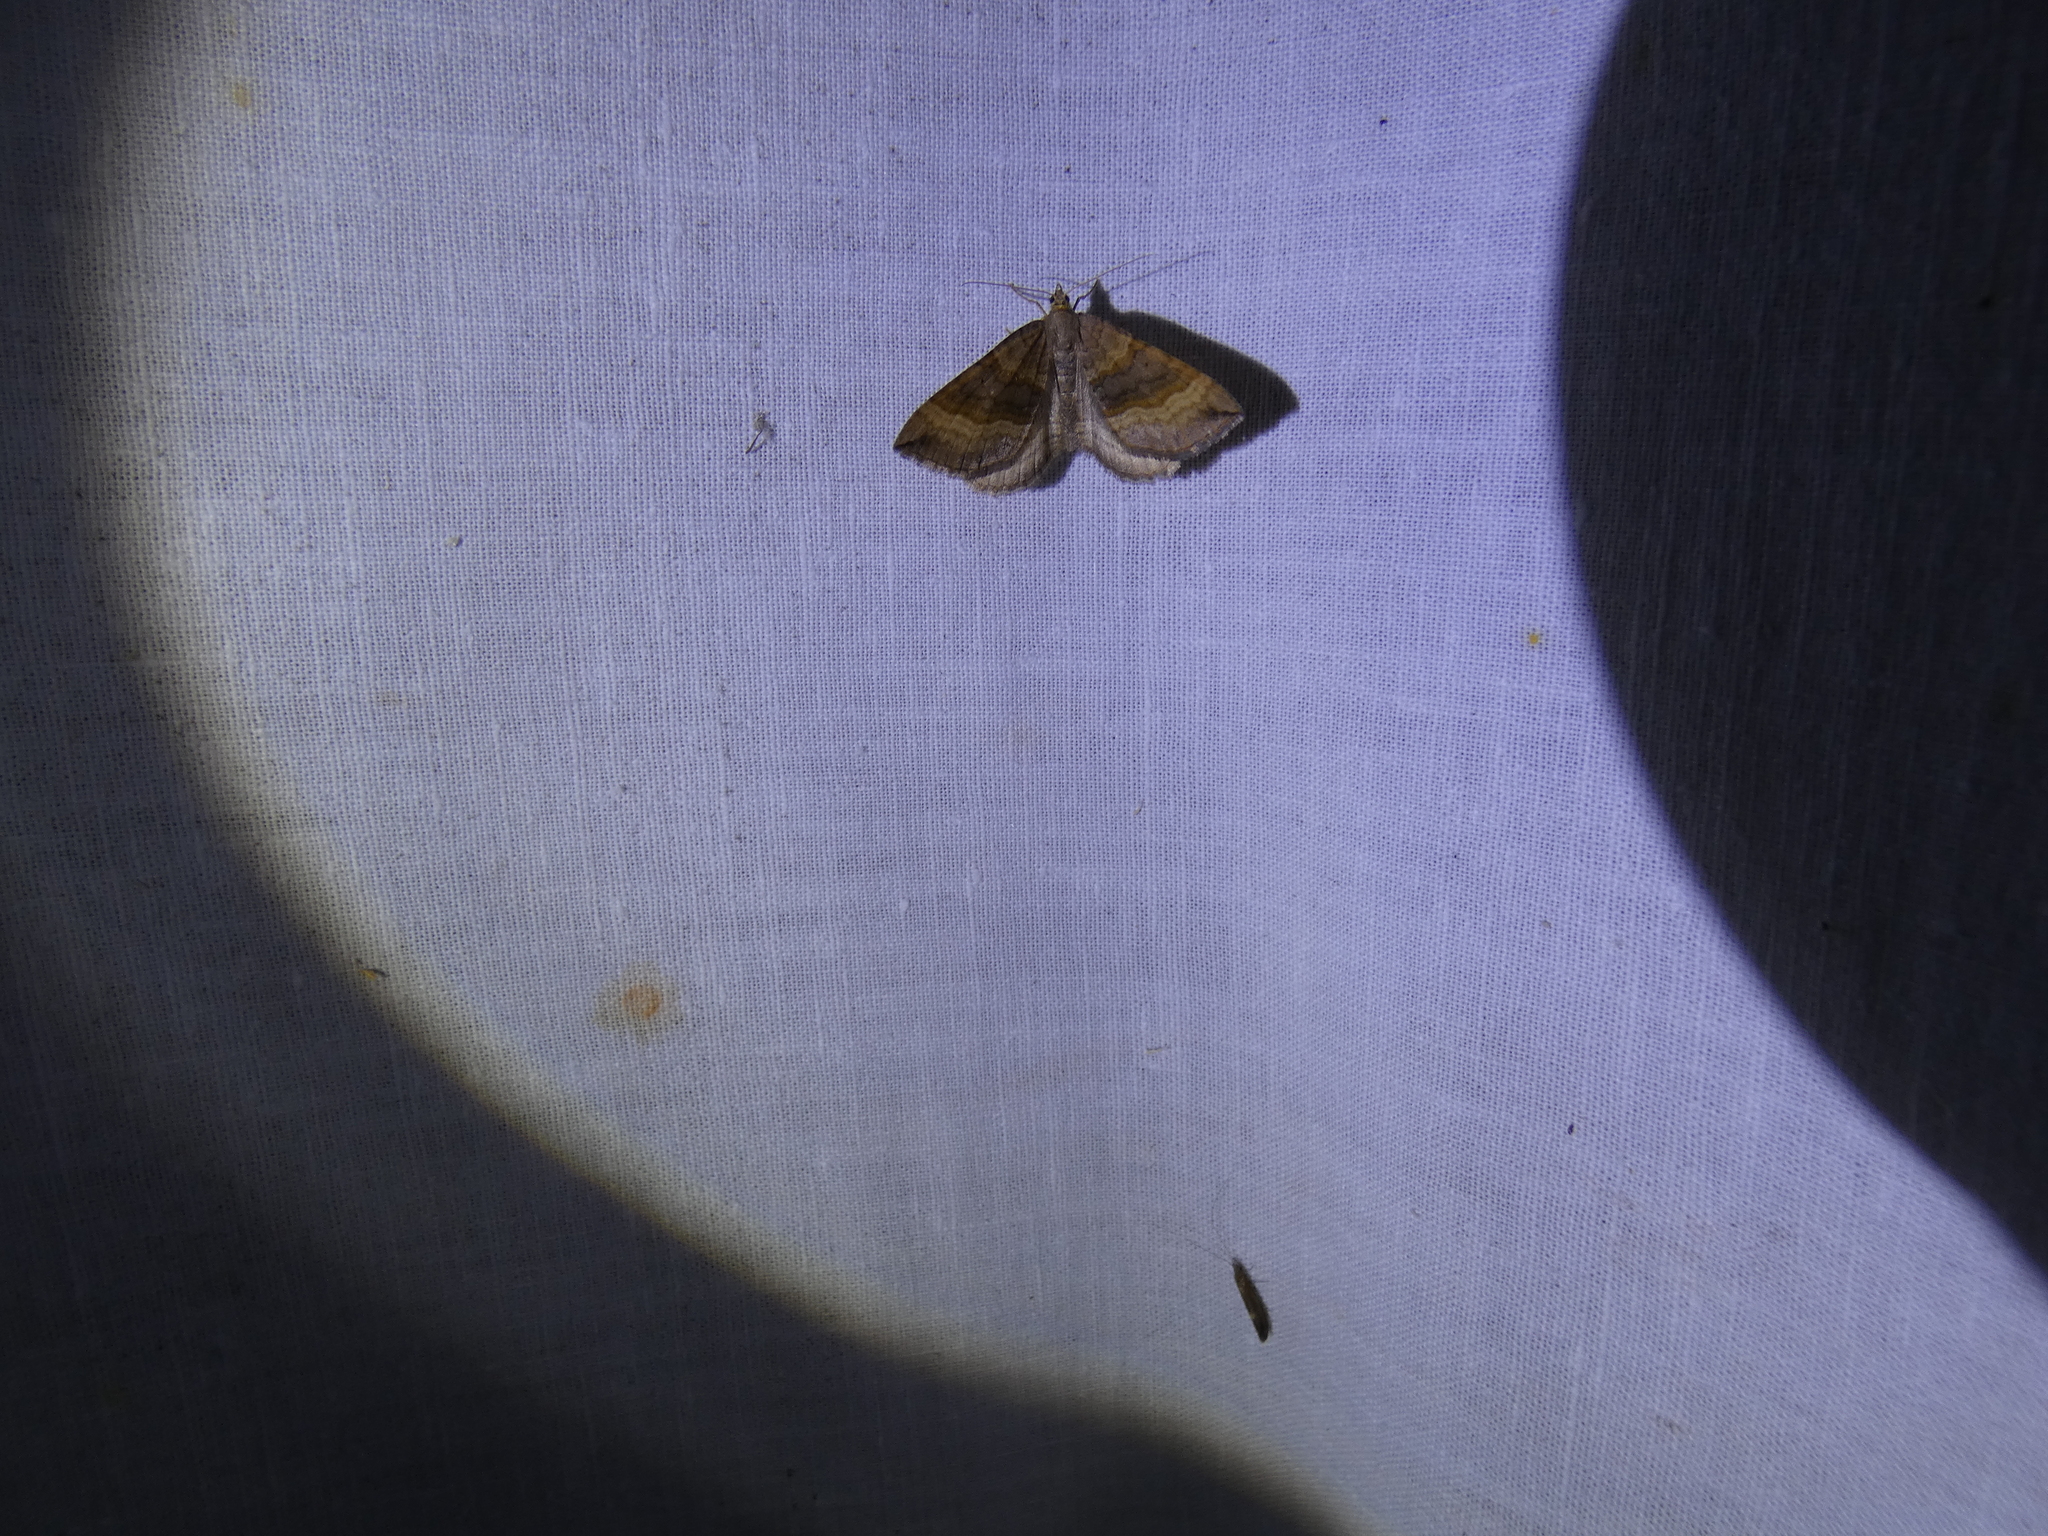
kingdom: Animalia
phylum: Arthropoda
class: Insecta
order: Lepidoptera
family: Geometridae
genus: Scotopteryx
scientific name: Scotopteryx chenopodiata
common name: Shaded broad-bar
